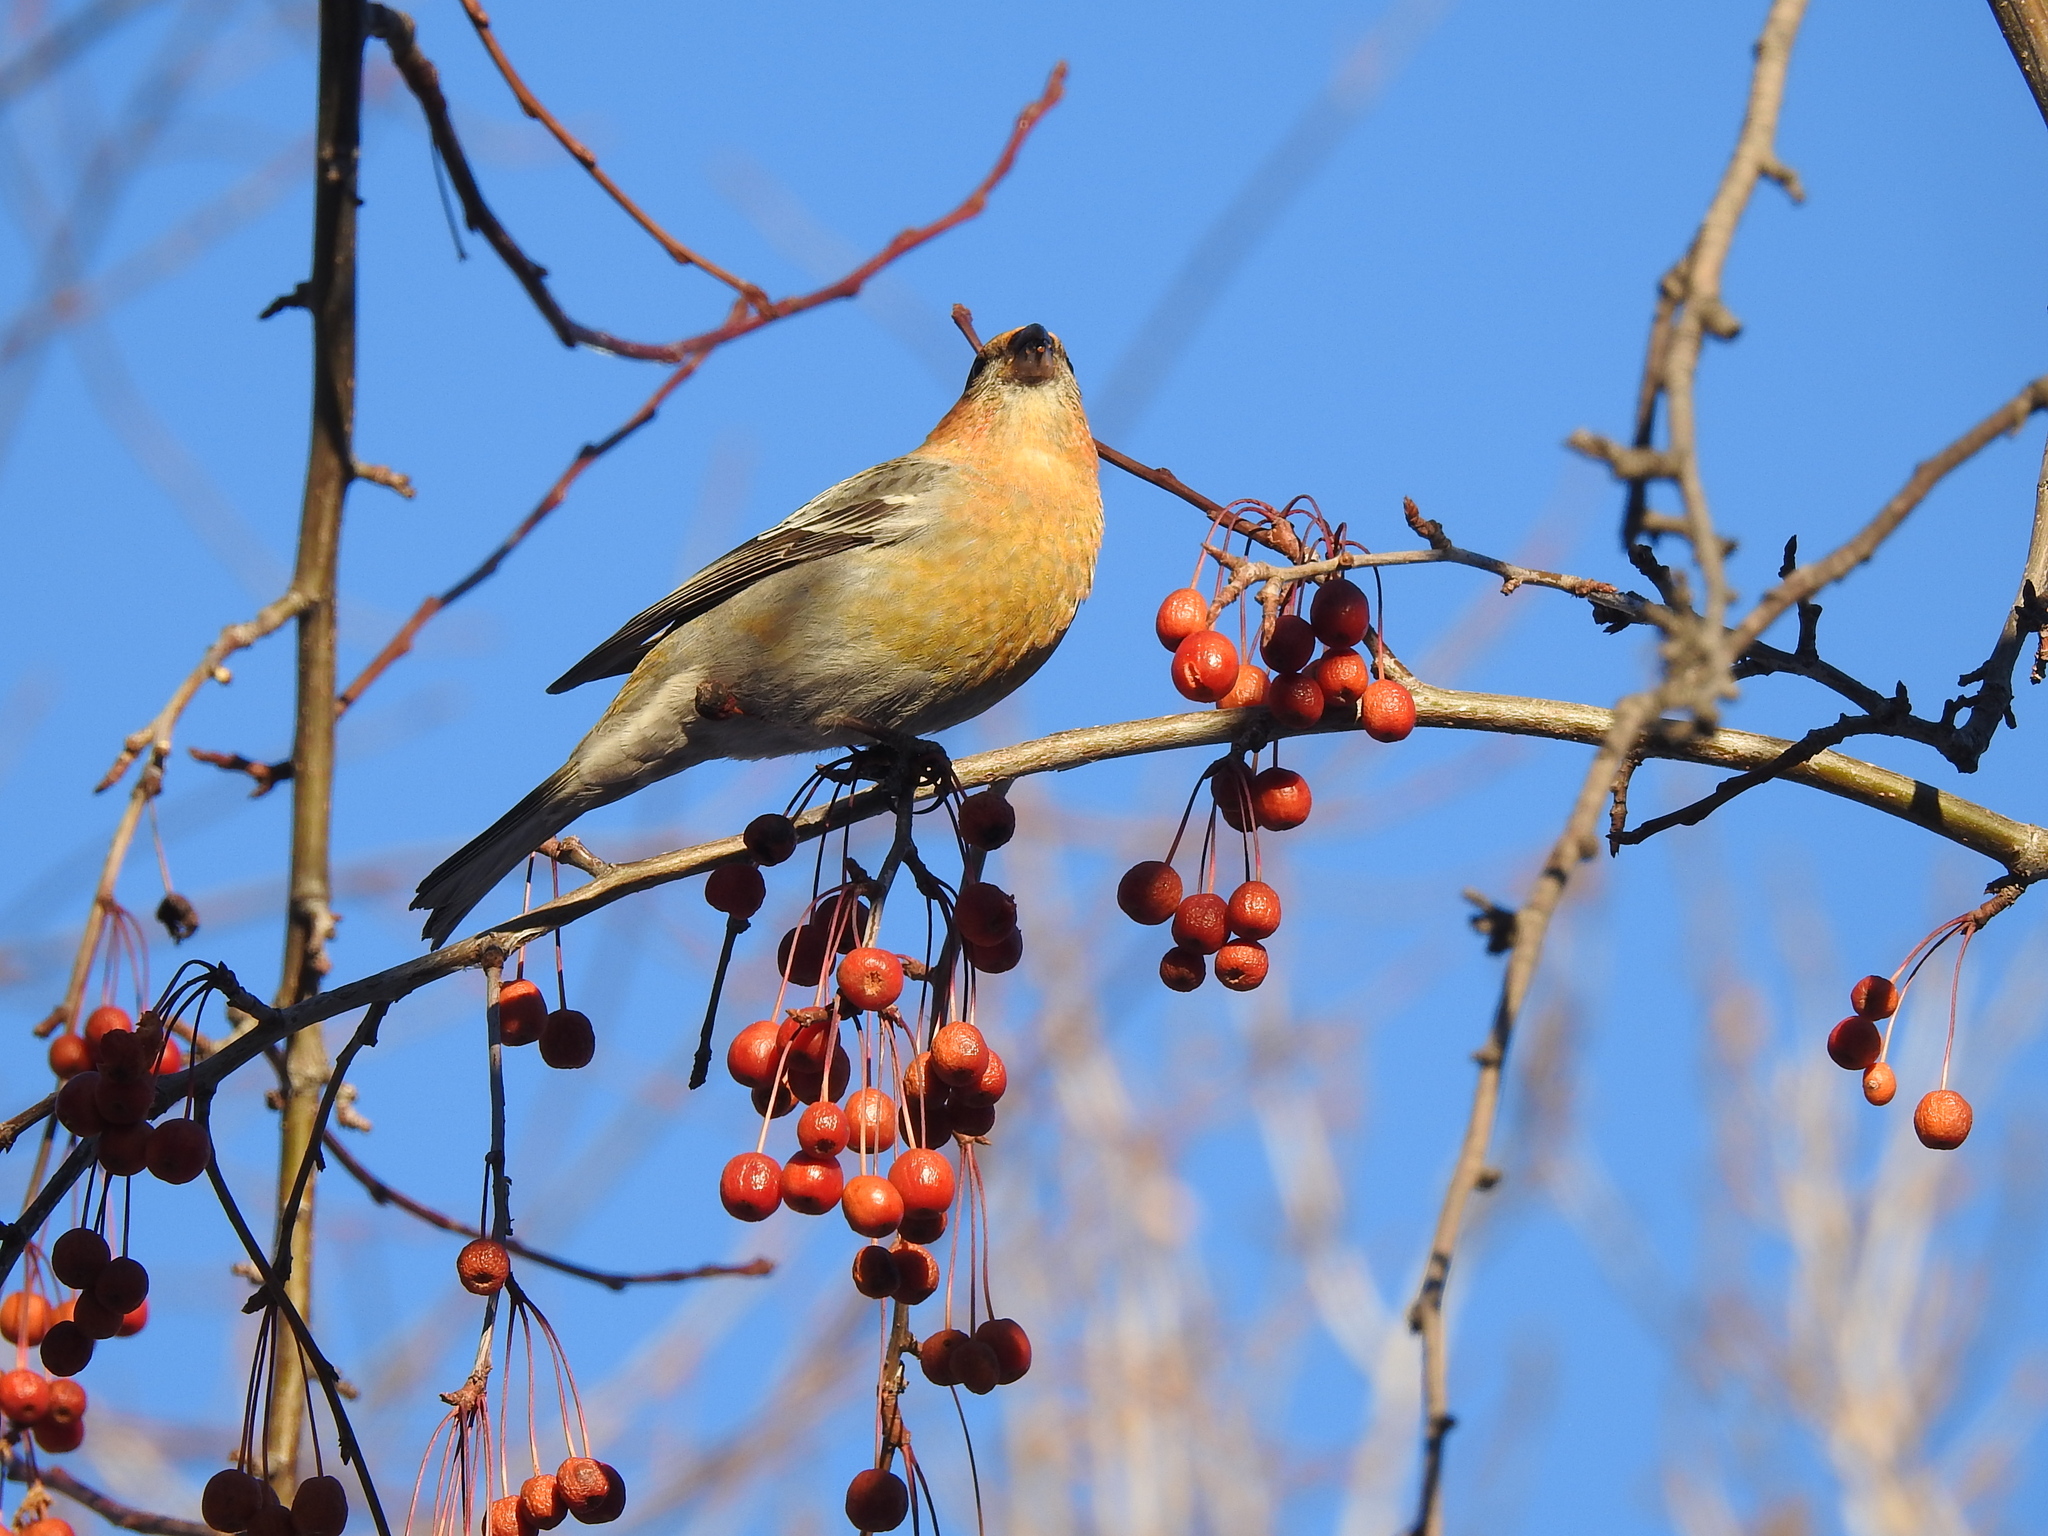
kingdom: Animalia
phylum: Chordata
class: Aves
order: Passeriformes
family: Fringillidae
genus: Pinicola
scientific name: Pinicola enucleator
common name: Pine grosbeak
